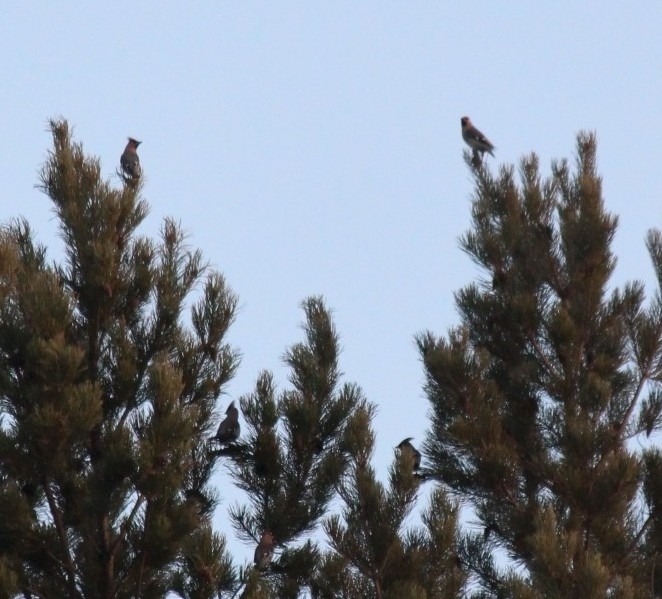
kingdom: Animalia
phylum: Chordata
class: Aves
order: Passeriformes
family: Bombycillidae
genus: Bombycilla
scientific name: Bombycilla garrulus
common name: Bohemian waxwing
